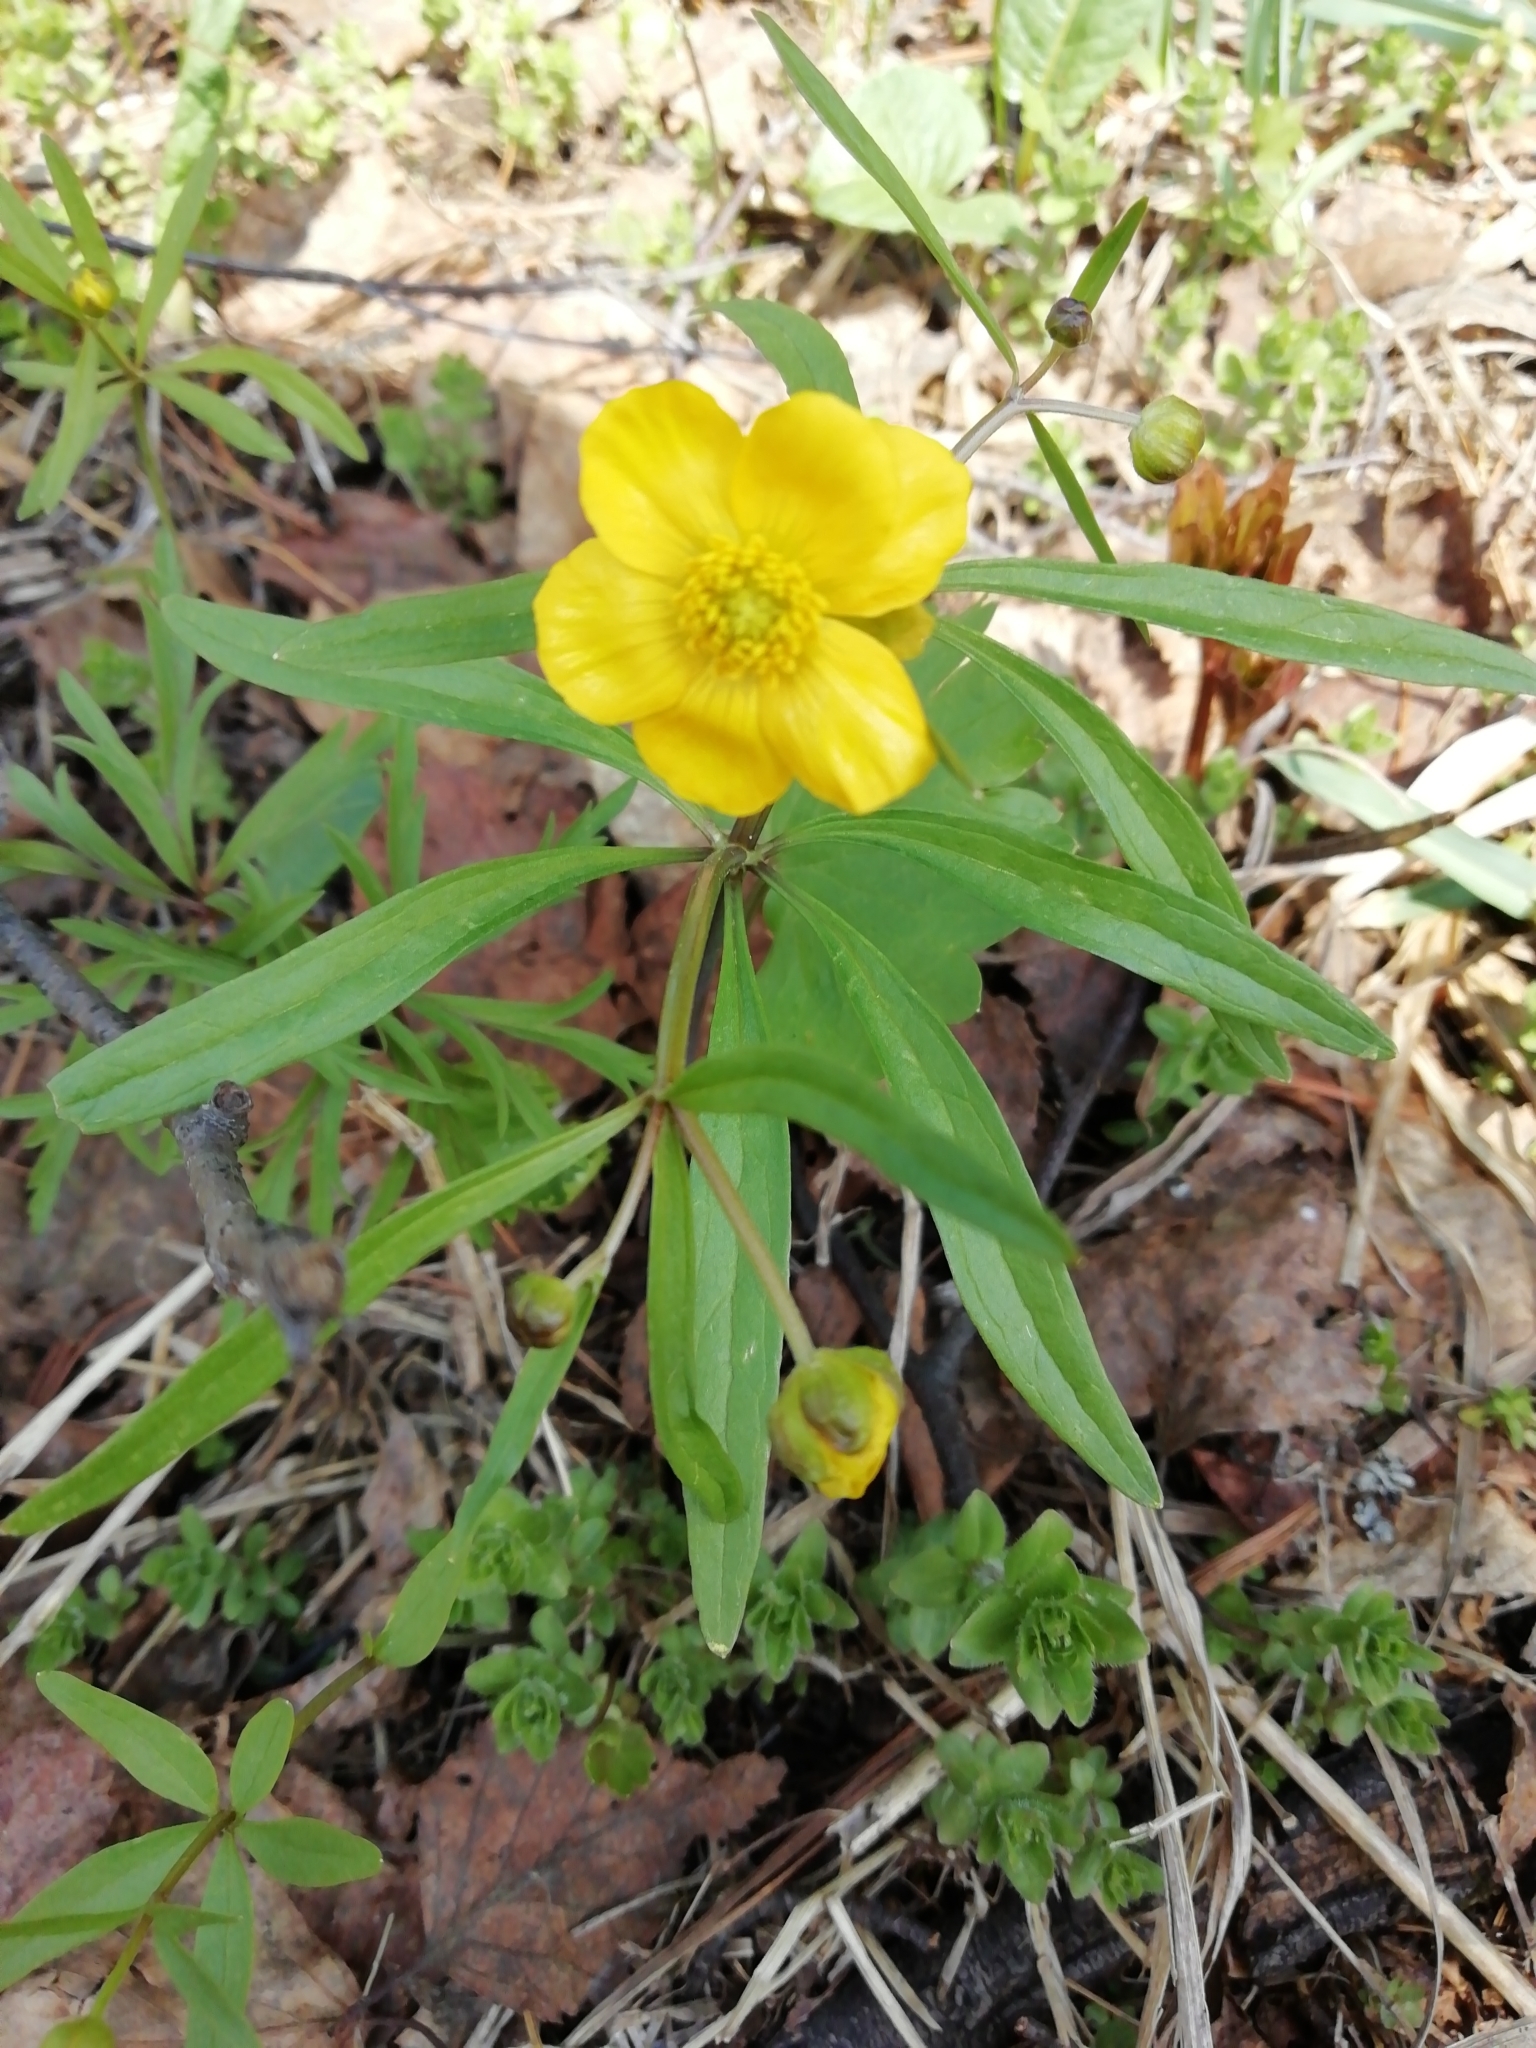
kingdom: Plantae
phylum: Tracheophyta
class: Magnoliopsida
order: Ranunculales
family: Ranunculaceae
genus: Ranunculus
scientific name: Ranunculus monophyllus
